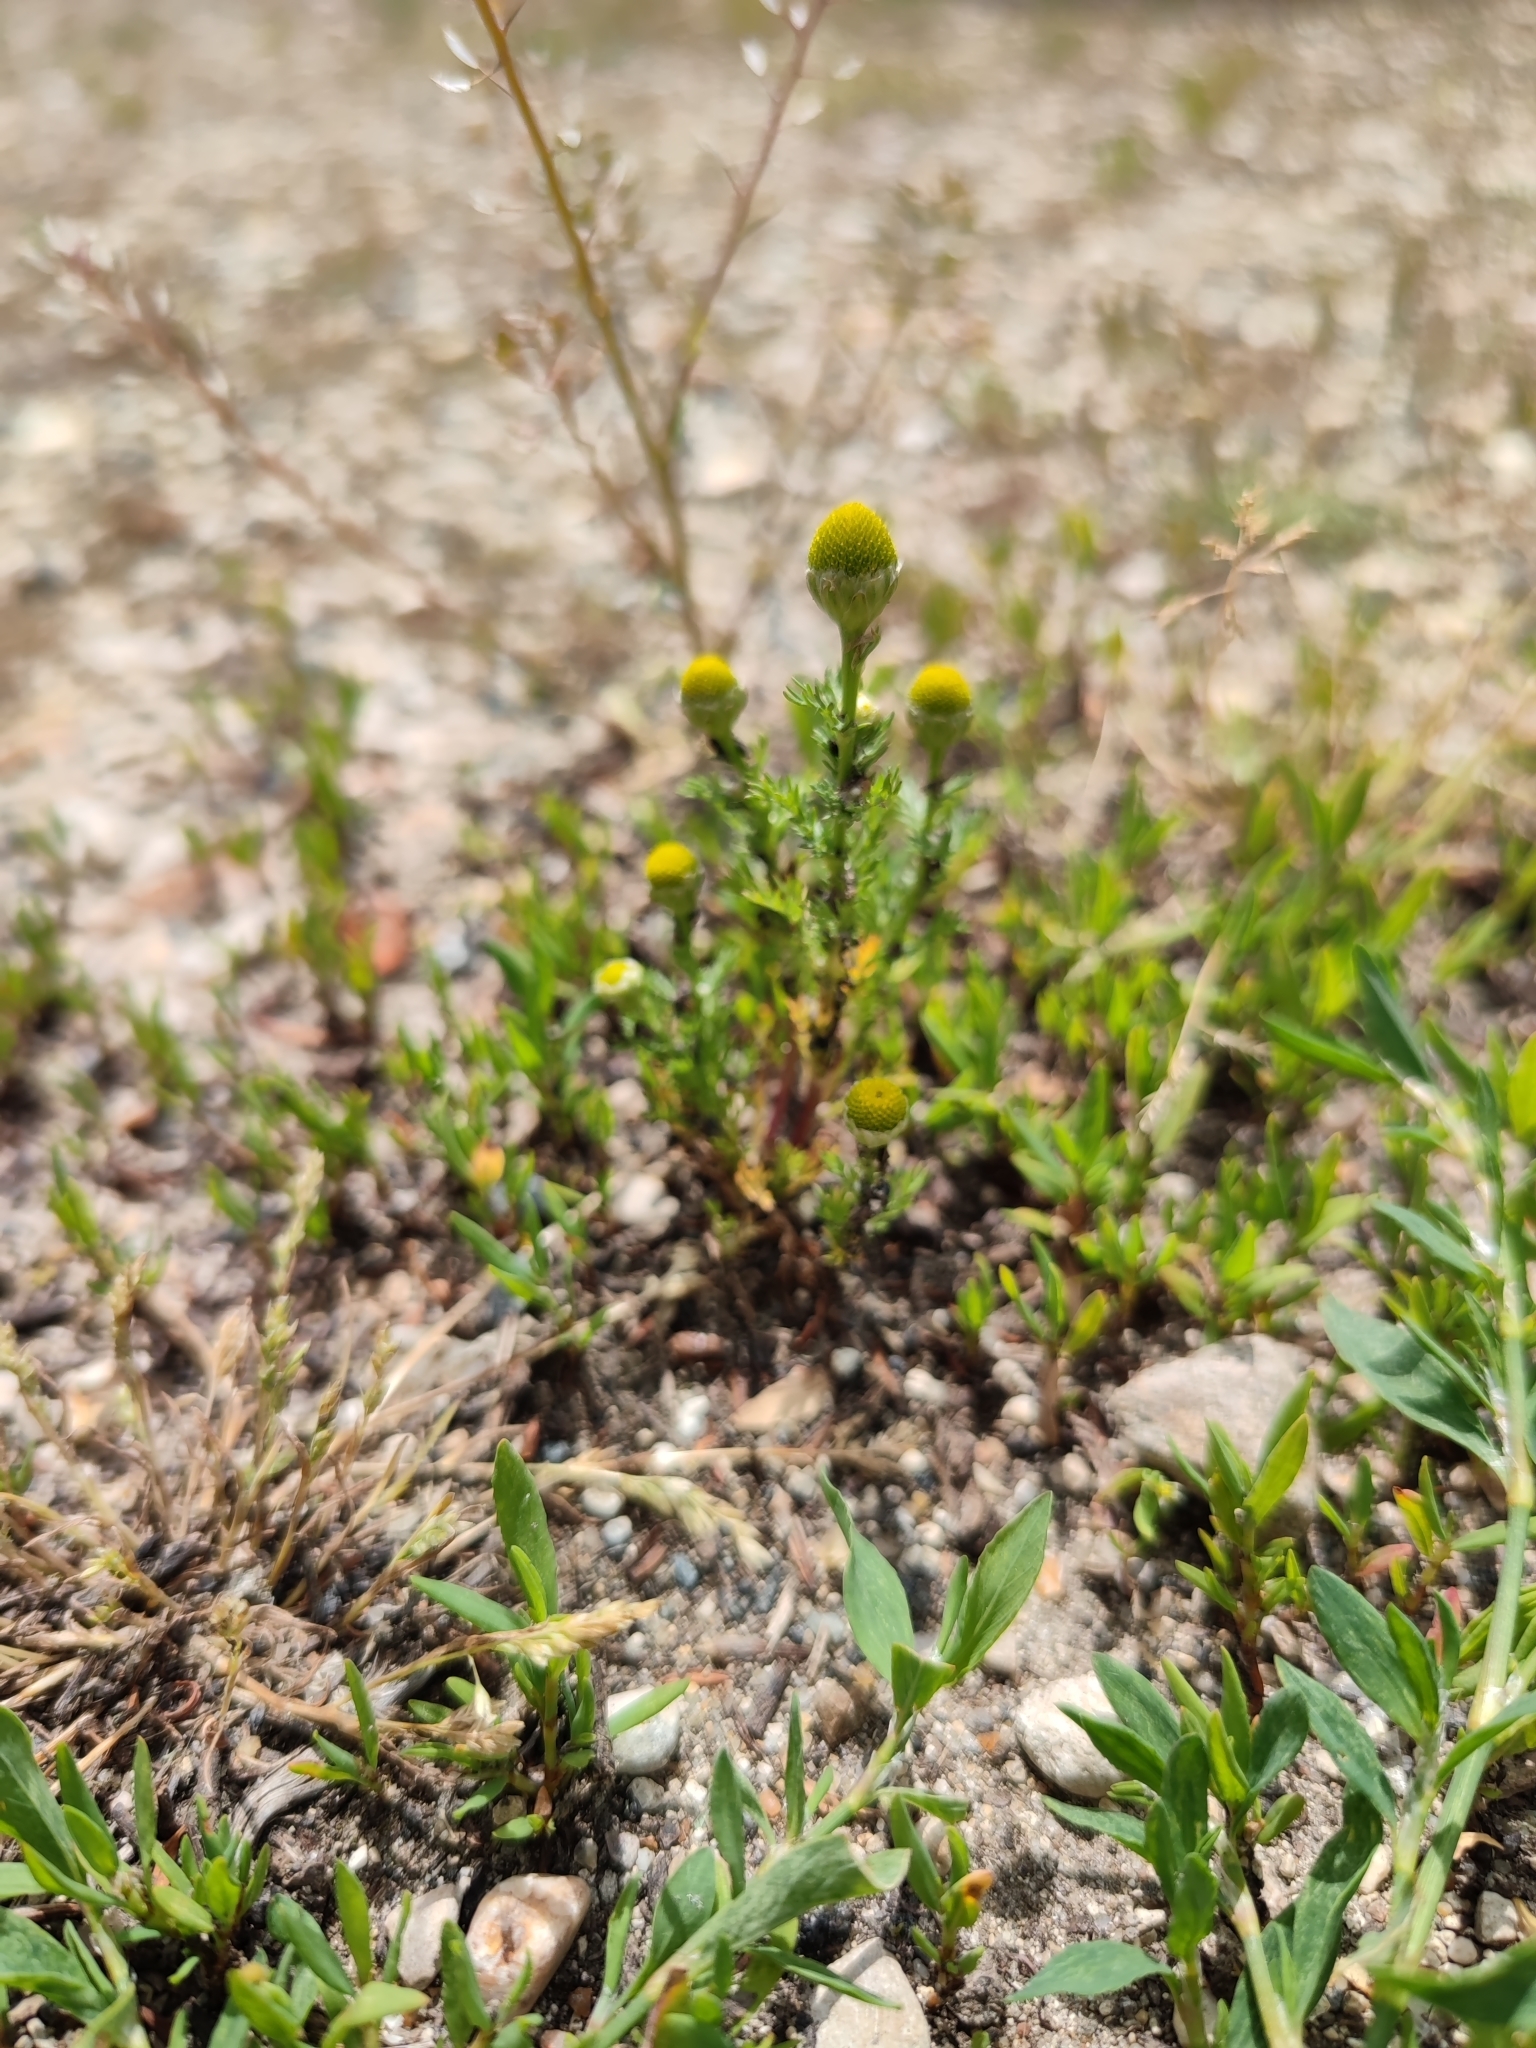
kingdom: Plantae
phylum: Tracheophyta
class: Magnoliopsida
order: Asterales
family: Asteraceae
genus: Matricaria
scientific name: Matricaria discoidea
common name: Disc mayweed
